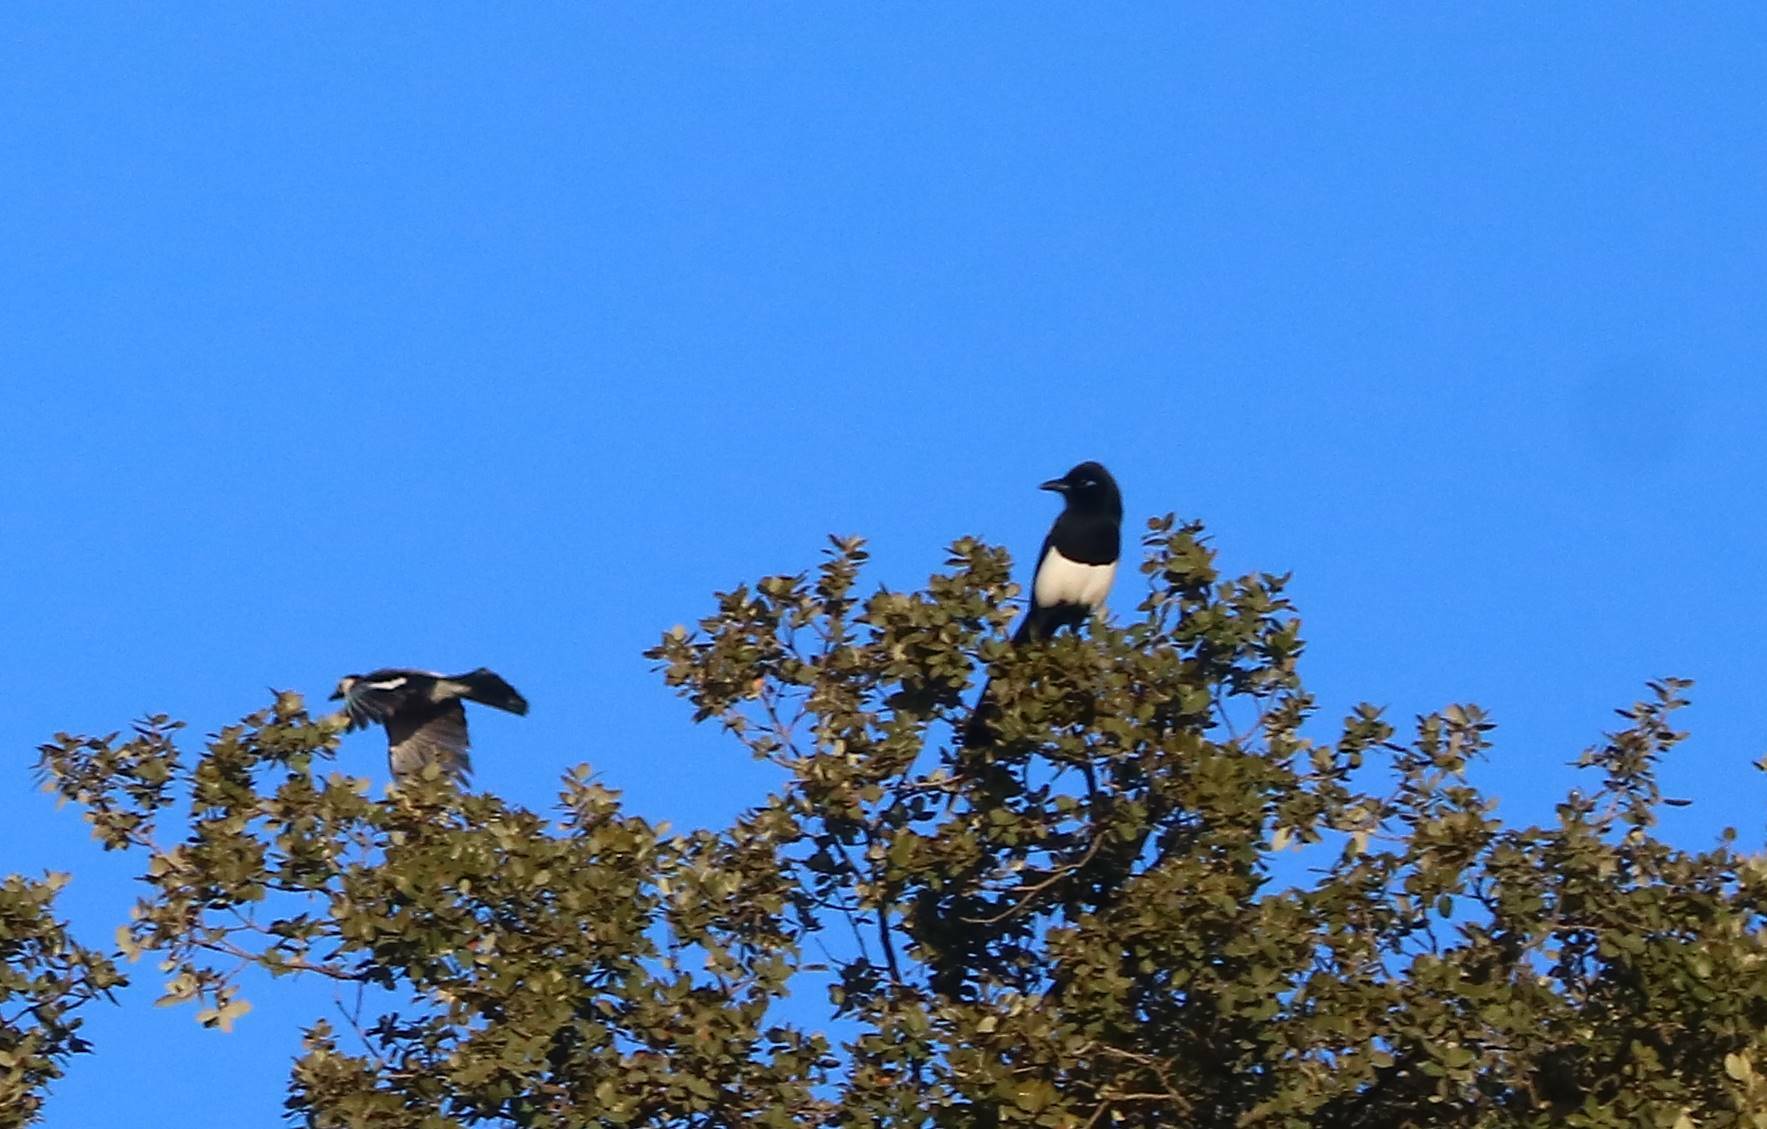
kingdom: Animalia
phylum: Chordata
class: Aves
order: Passeriformes
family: Corvidae
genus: Pica
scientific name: Pica mauritanica
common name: Maghreb magpie
